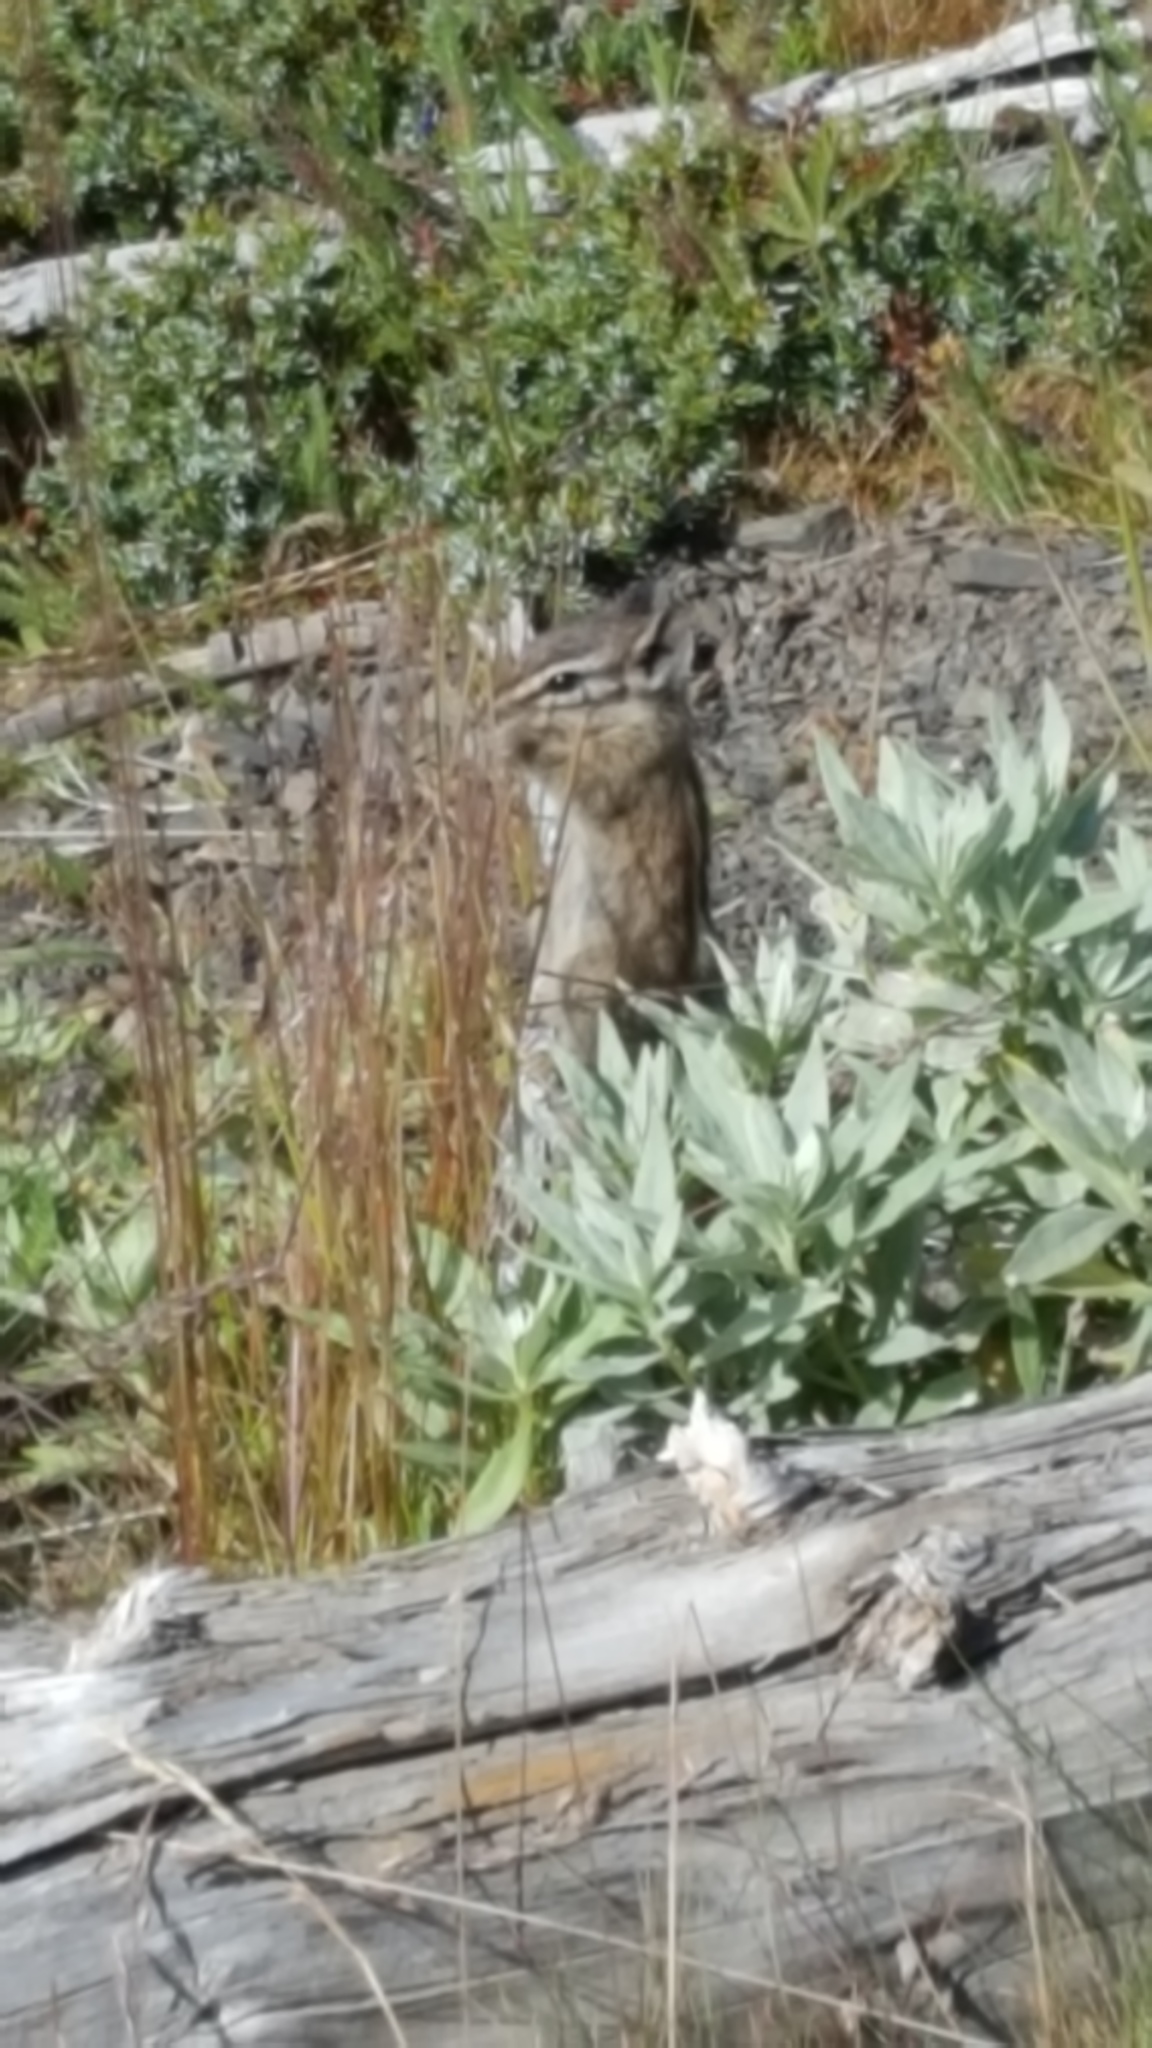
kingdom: Animalia
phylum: Chordata
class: Mammalia
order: Rodentia
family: Sciuridae
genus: Tamias
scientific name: Tamias amoenus
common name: Yellow-pine chipmunk
